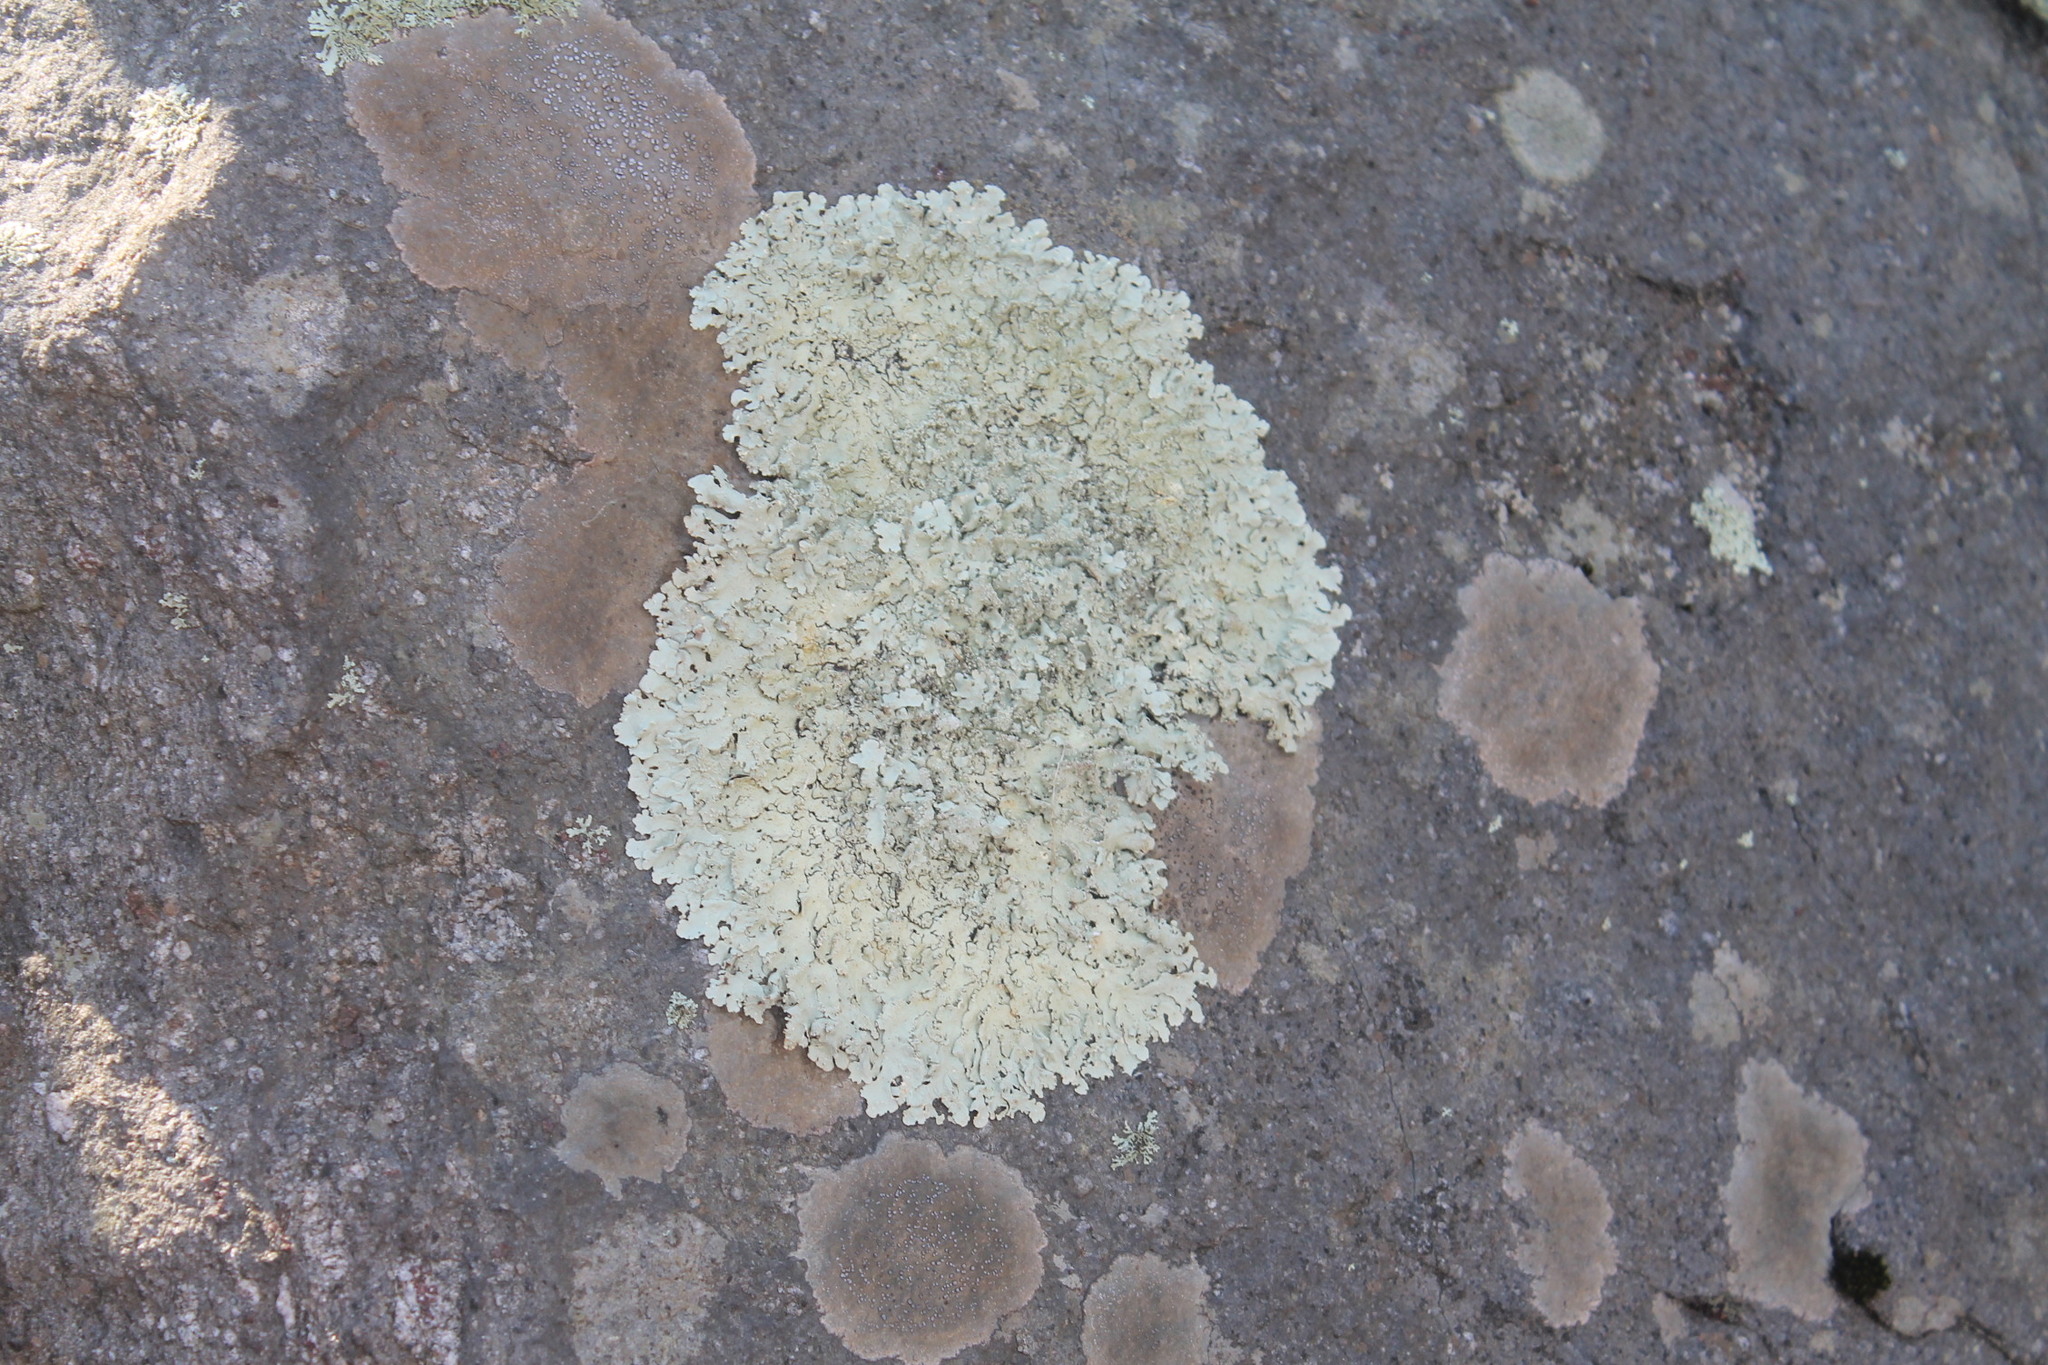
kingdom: Fungi
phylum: Ascomycota
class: Lecanoromycetes
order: Lecanorales
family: Parmeliaceae
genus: Flavoparmelia
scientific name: Flavoparmelia baltimorensis
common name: Rock greenshield
